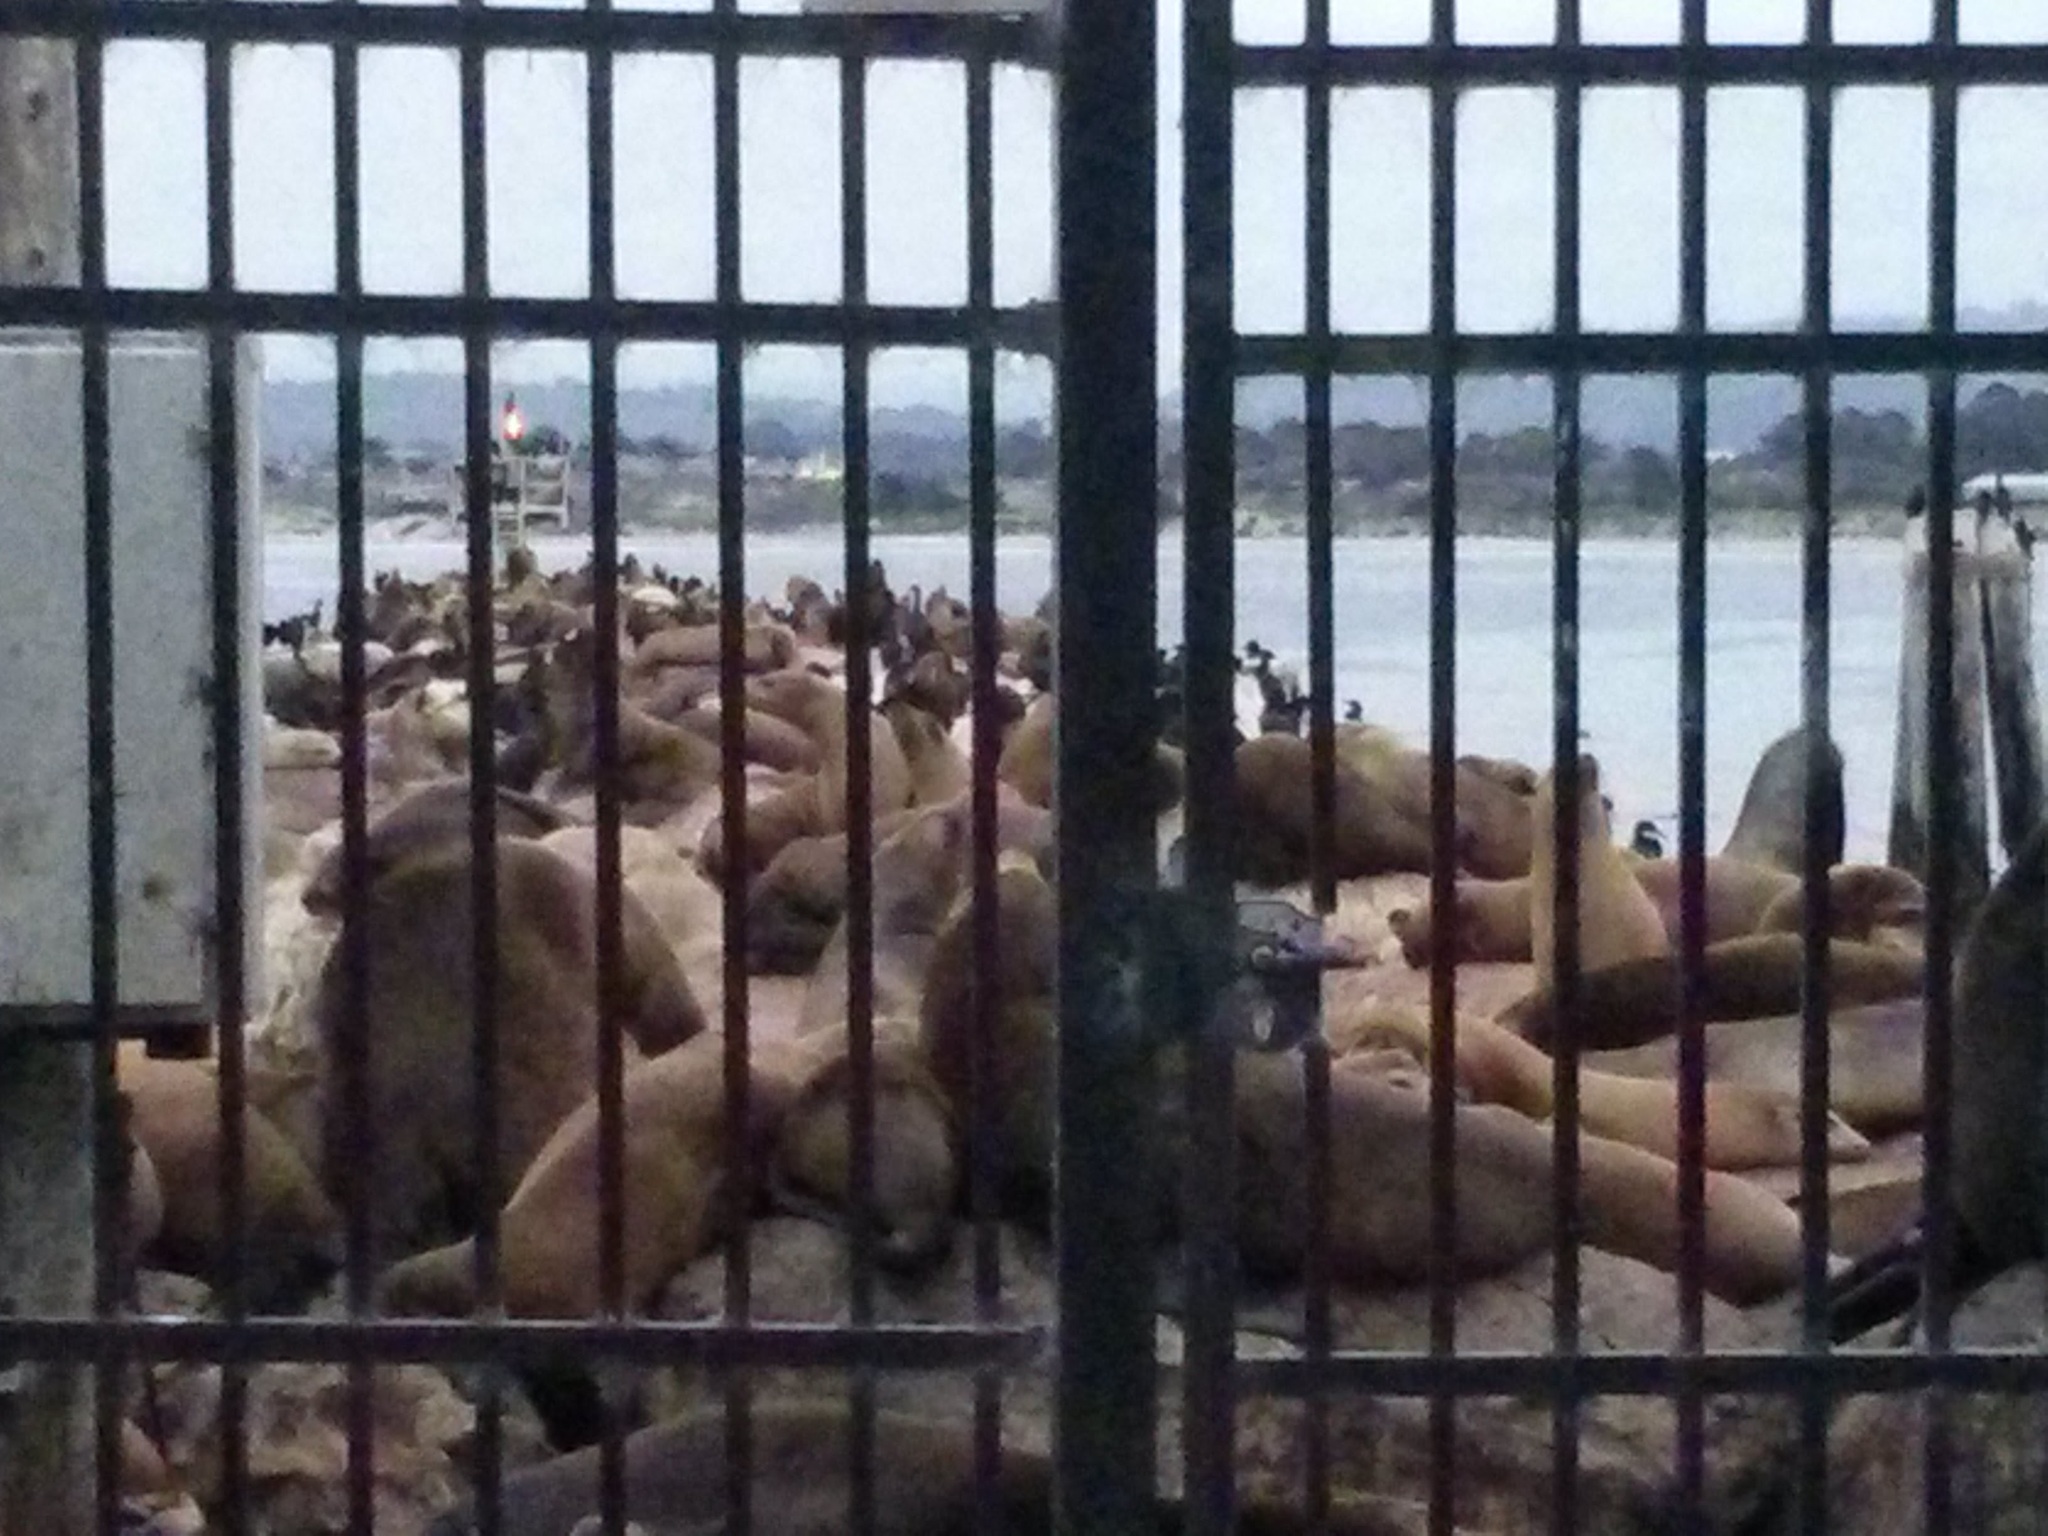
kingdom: Animalia
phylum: Chordata
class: Mammalia
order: Carnivora
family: Otariidae
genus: Zalophus
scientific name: Zalophus californianus
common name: California sea lion
